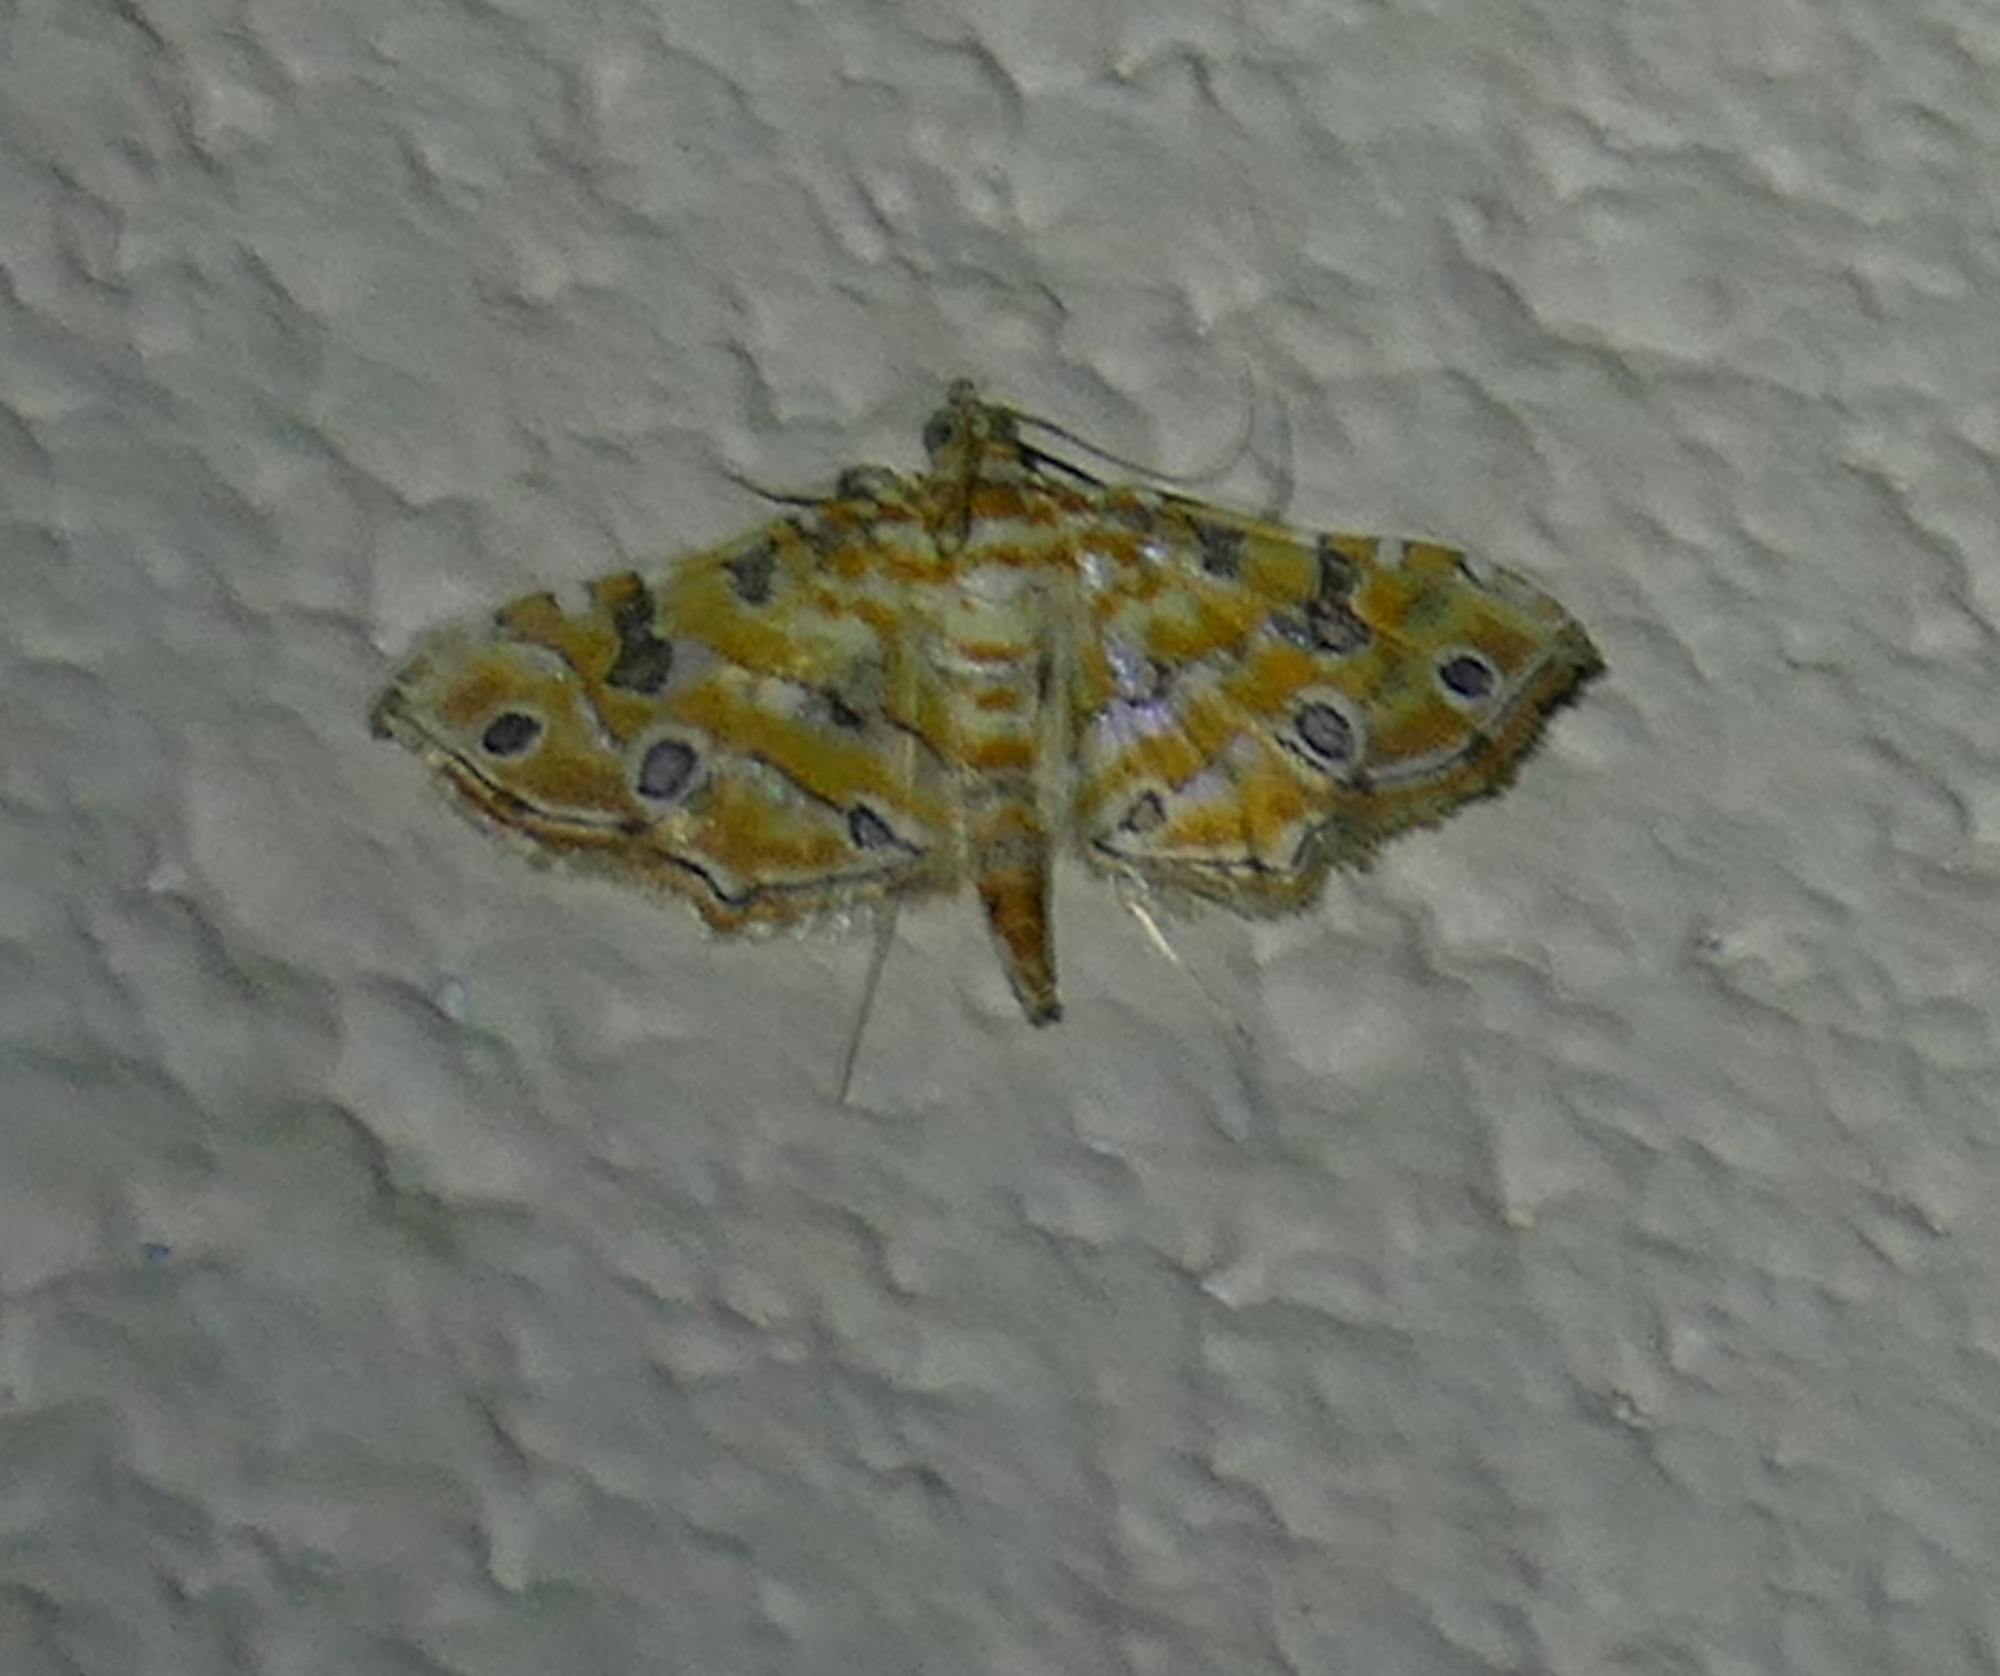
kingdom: Animalia
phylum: Arthropoda
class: Insecta
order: Lepidoptera
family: Crambidae
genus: Ommatospila
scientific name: Ommatospila narcaeusalis
